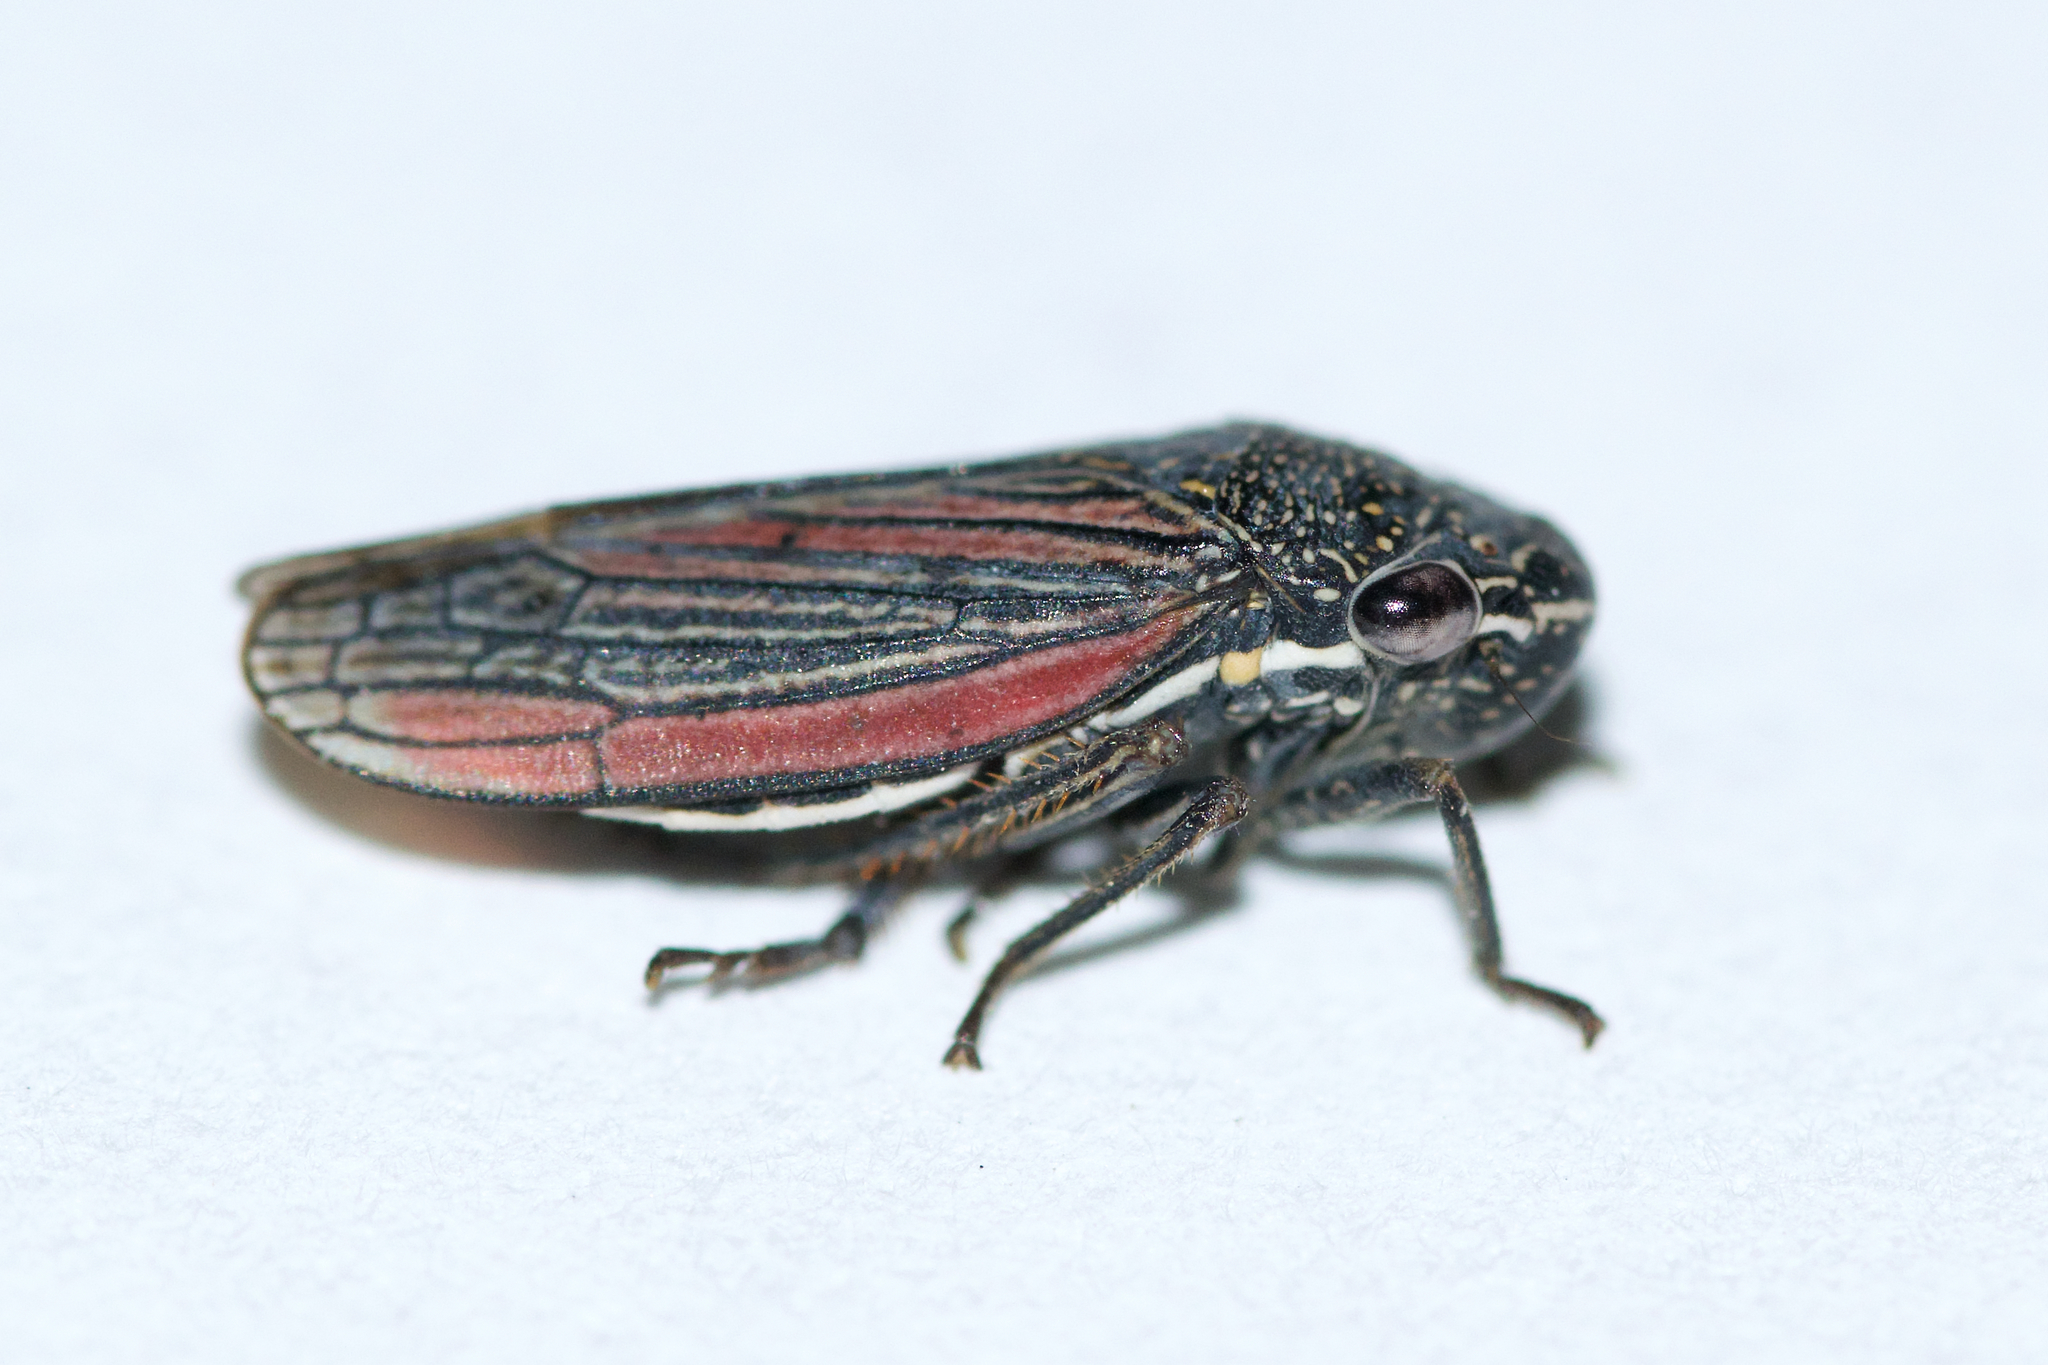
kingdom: Animalia
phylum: Arthropoda
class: Insecta
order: Hemiptera
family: Cicadellidae
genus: Cuerna
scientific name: Cuerna striata
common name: Striped leafhopper
